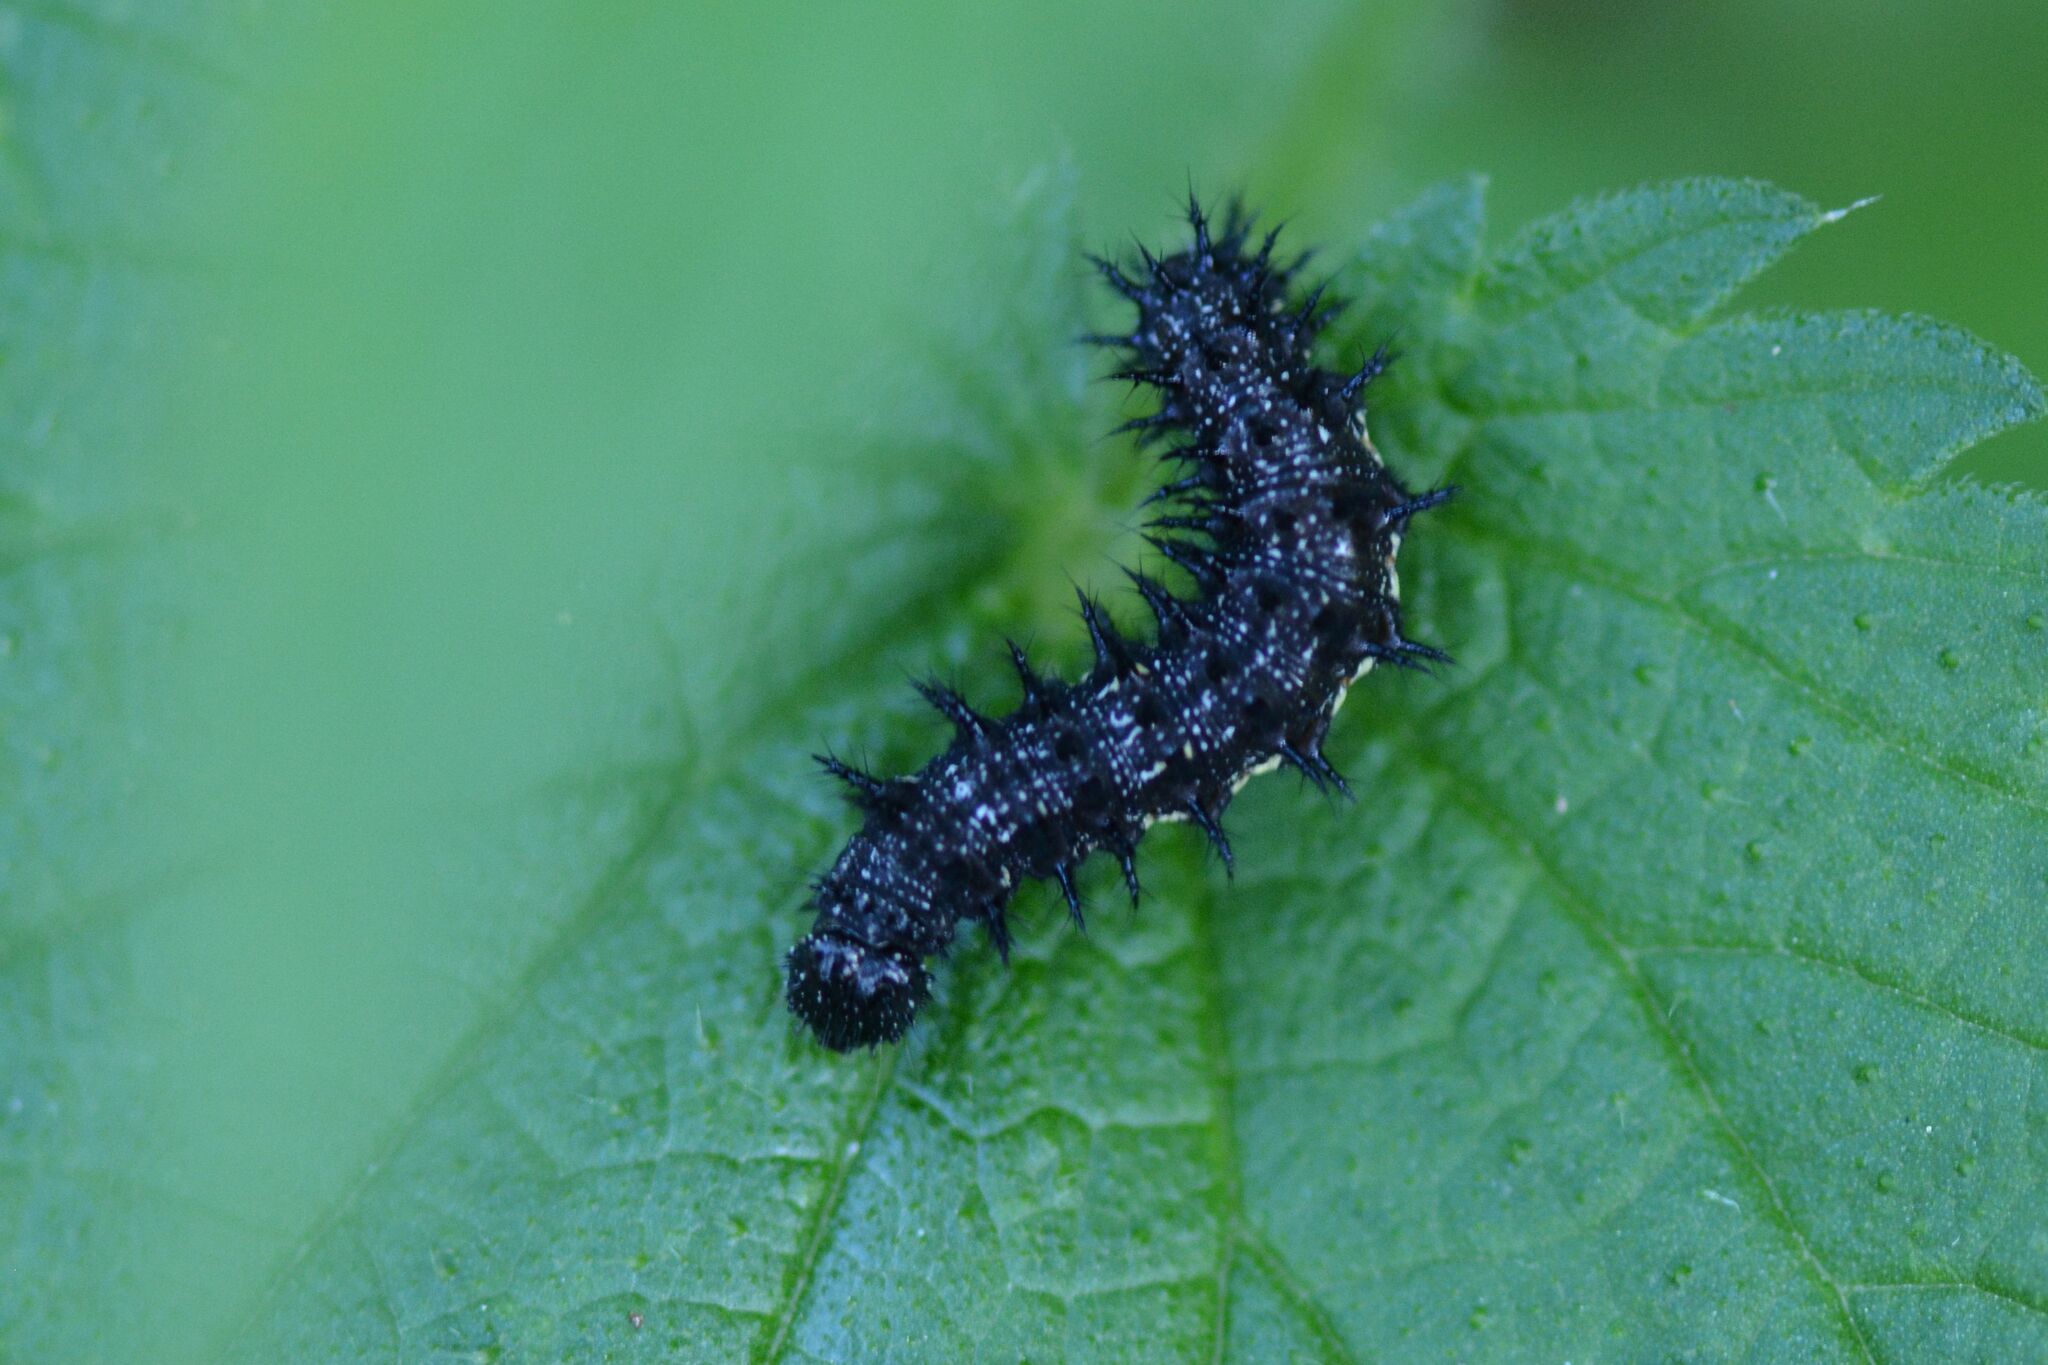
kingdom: Animalia
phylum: Arthropoda
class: Insecta
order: Lepidoptera
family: Nymphalidae
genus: Vanessa
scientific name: Vanessa atalanta
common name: Red admiral
